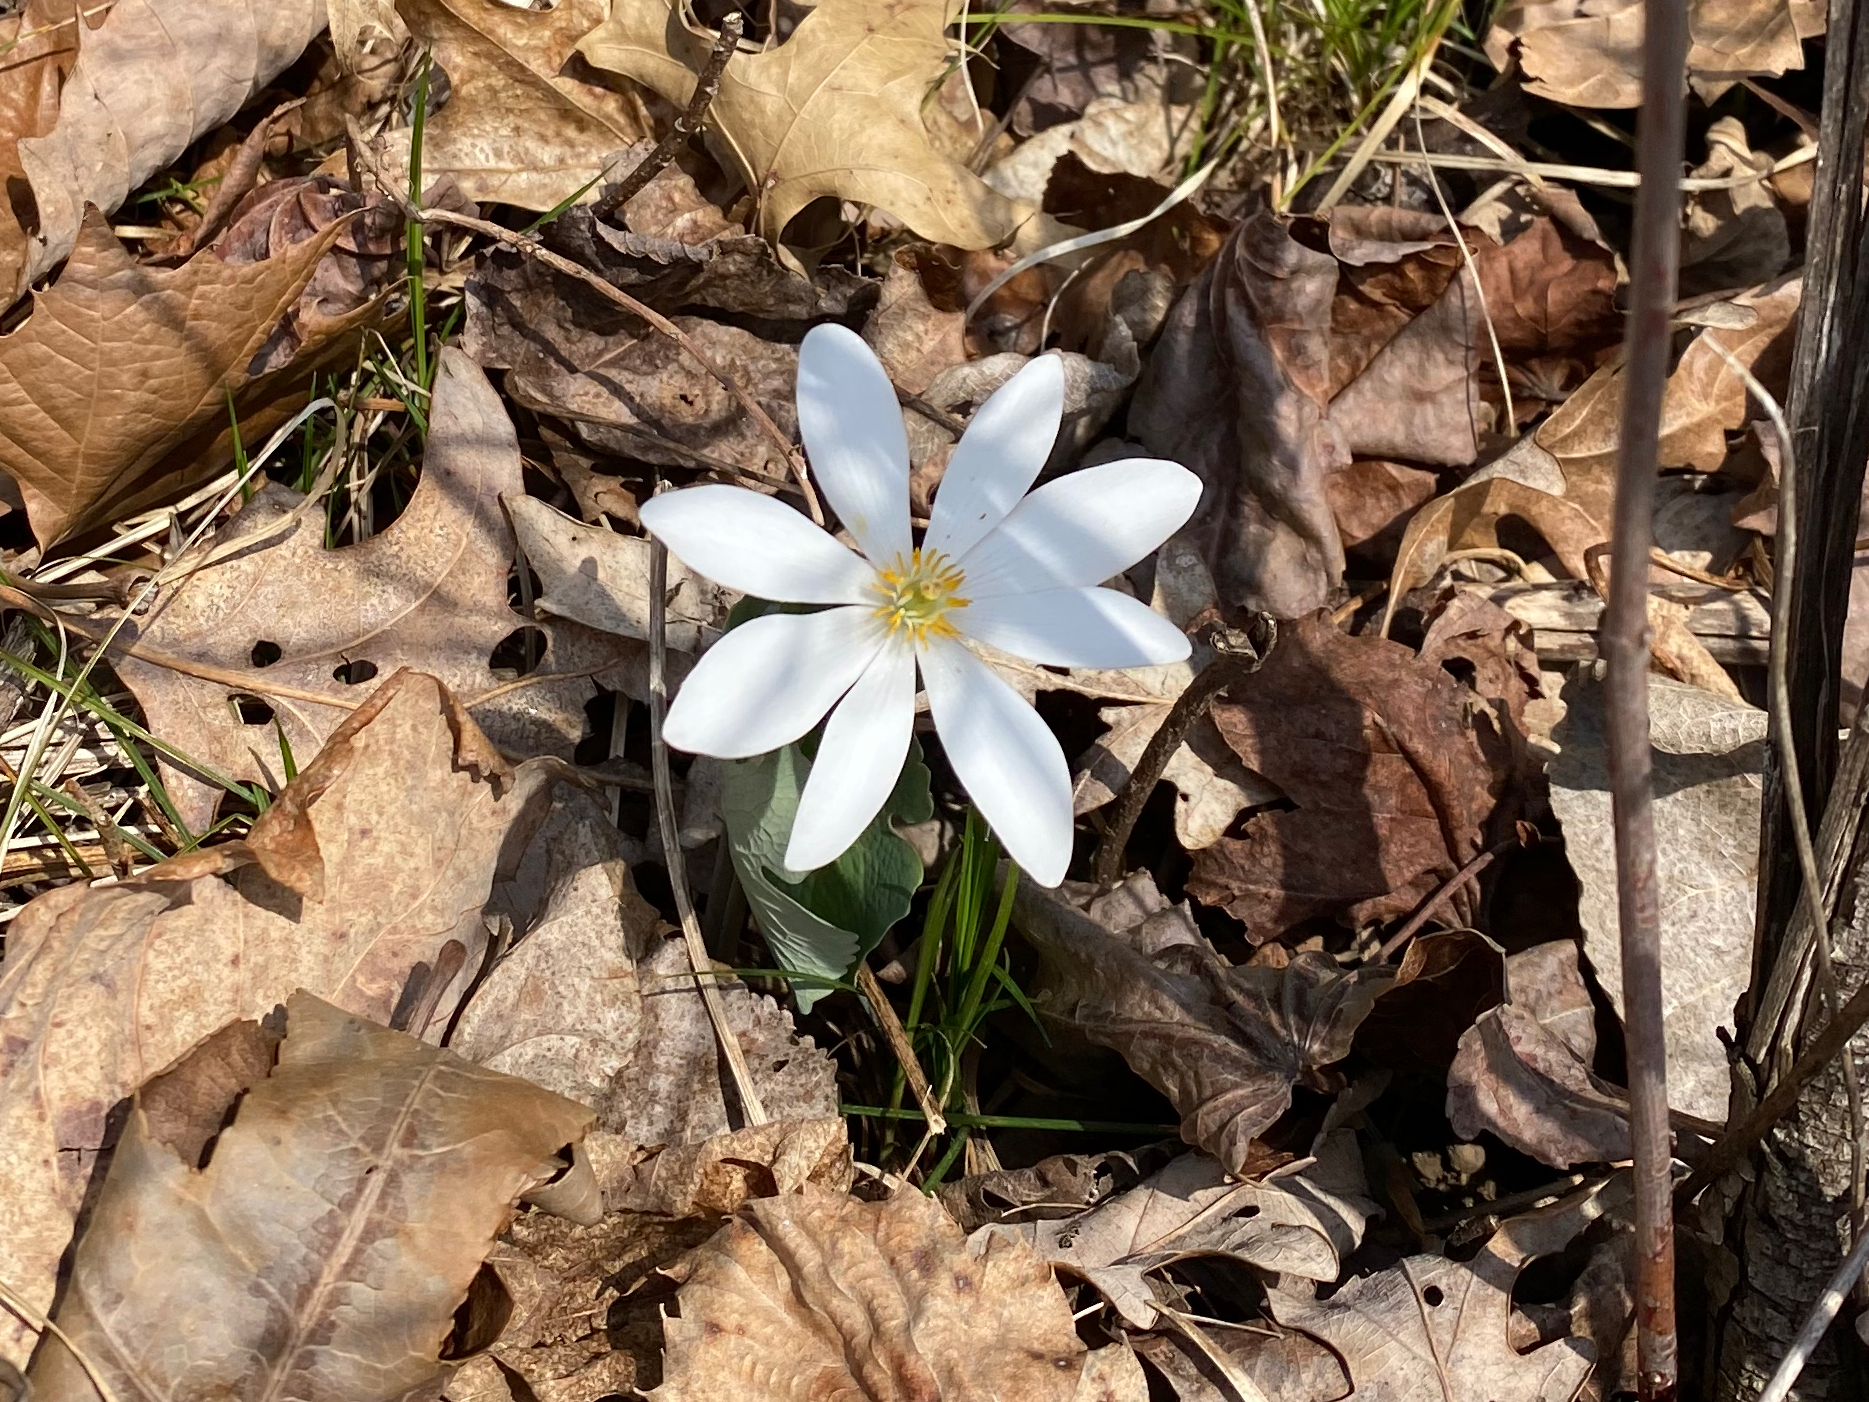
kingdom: Plantae
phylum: Tracheophyta
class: Magnoliopsida
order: Ranunculales
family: Papaveraceae
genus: Sanguinaria
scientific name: Sanguinaria canadensis
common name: Bloodroot
